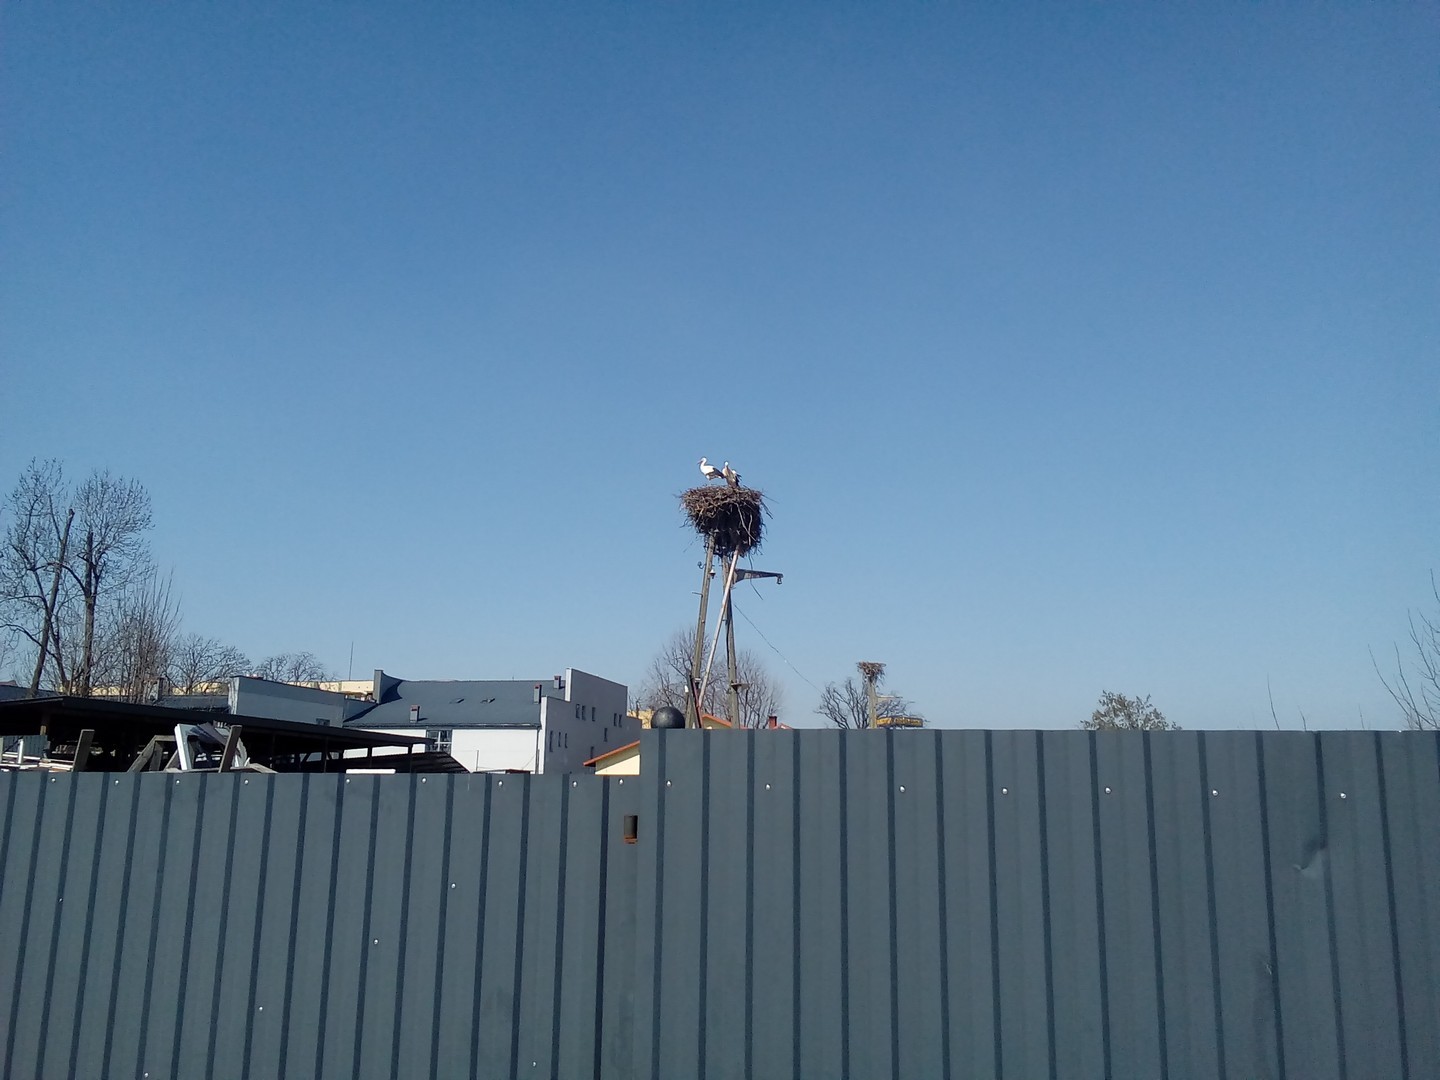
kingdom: Animalia
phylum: Chordata
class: Aves
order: Ciconiiformes
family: Ciconiidae
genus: Ciconia
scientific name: Ciconia ciconia
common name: White stork
